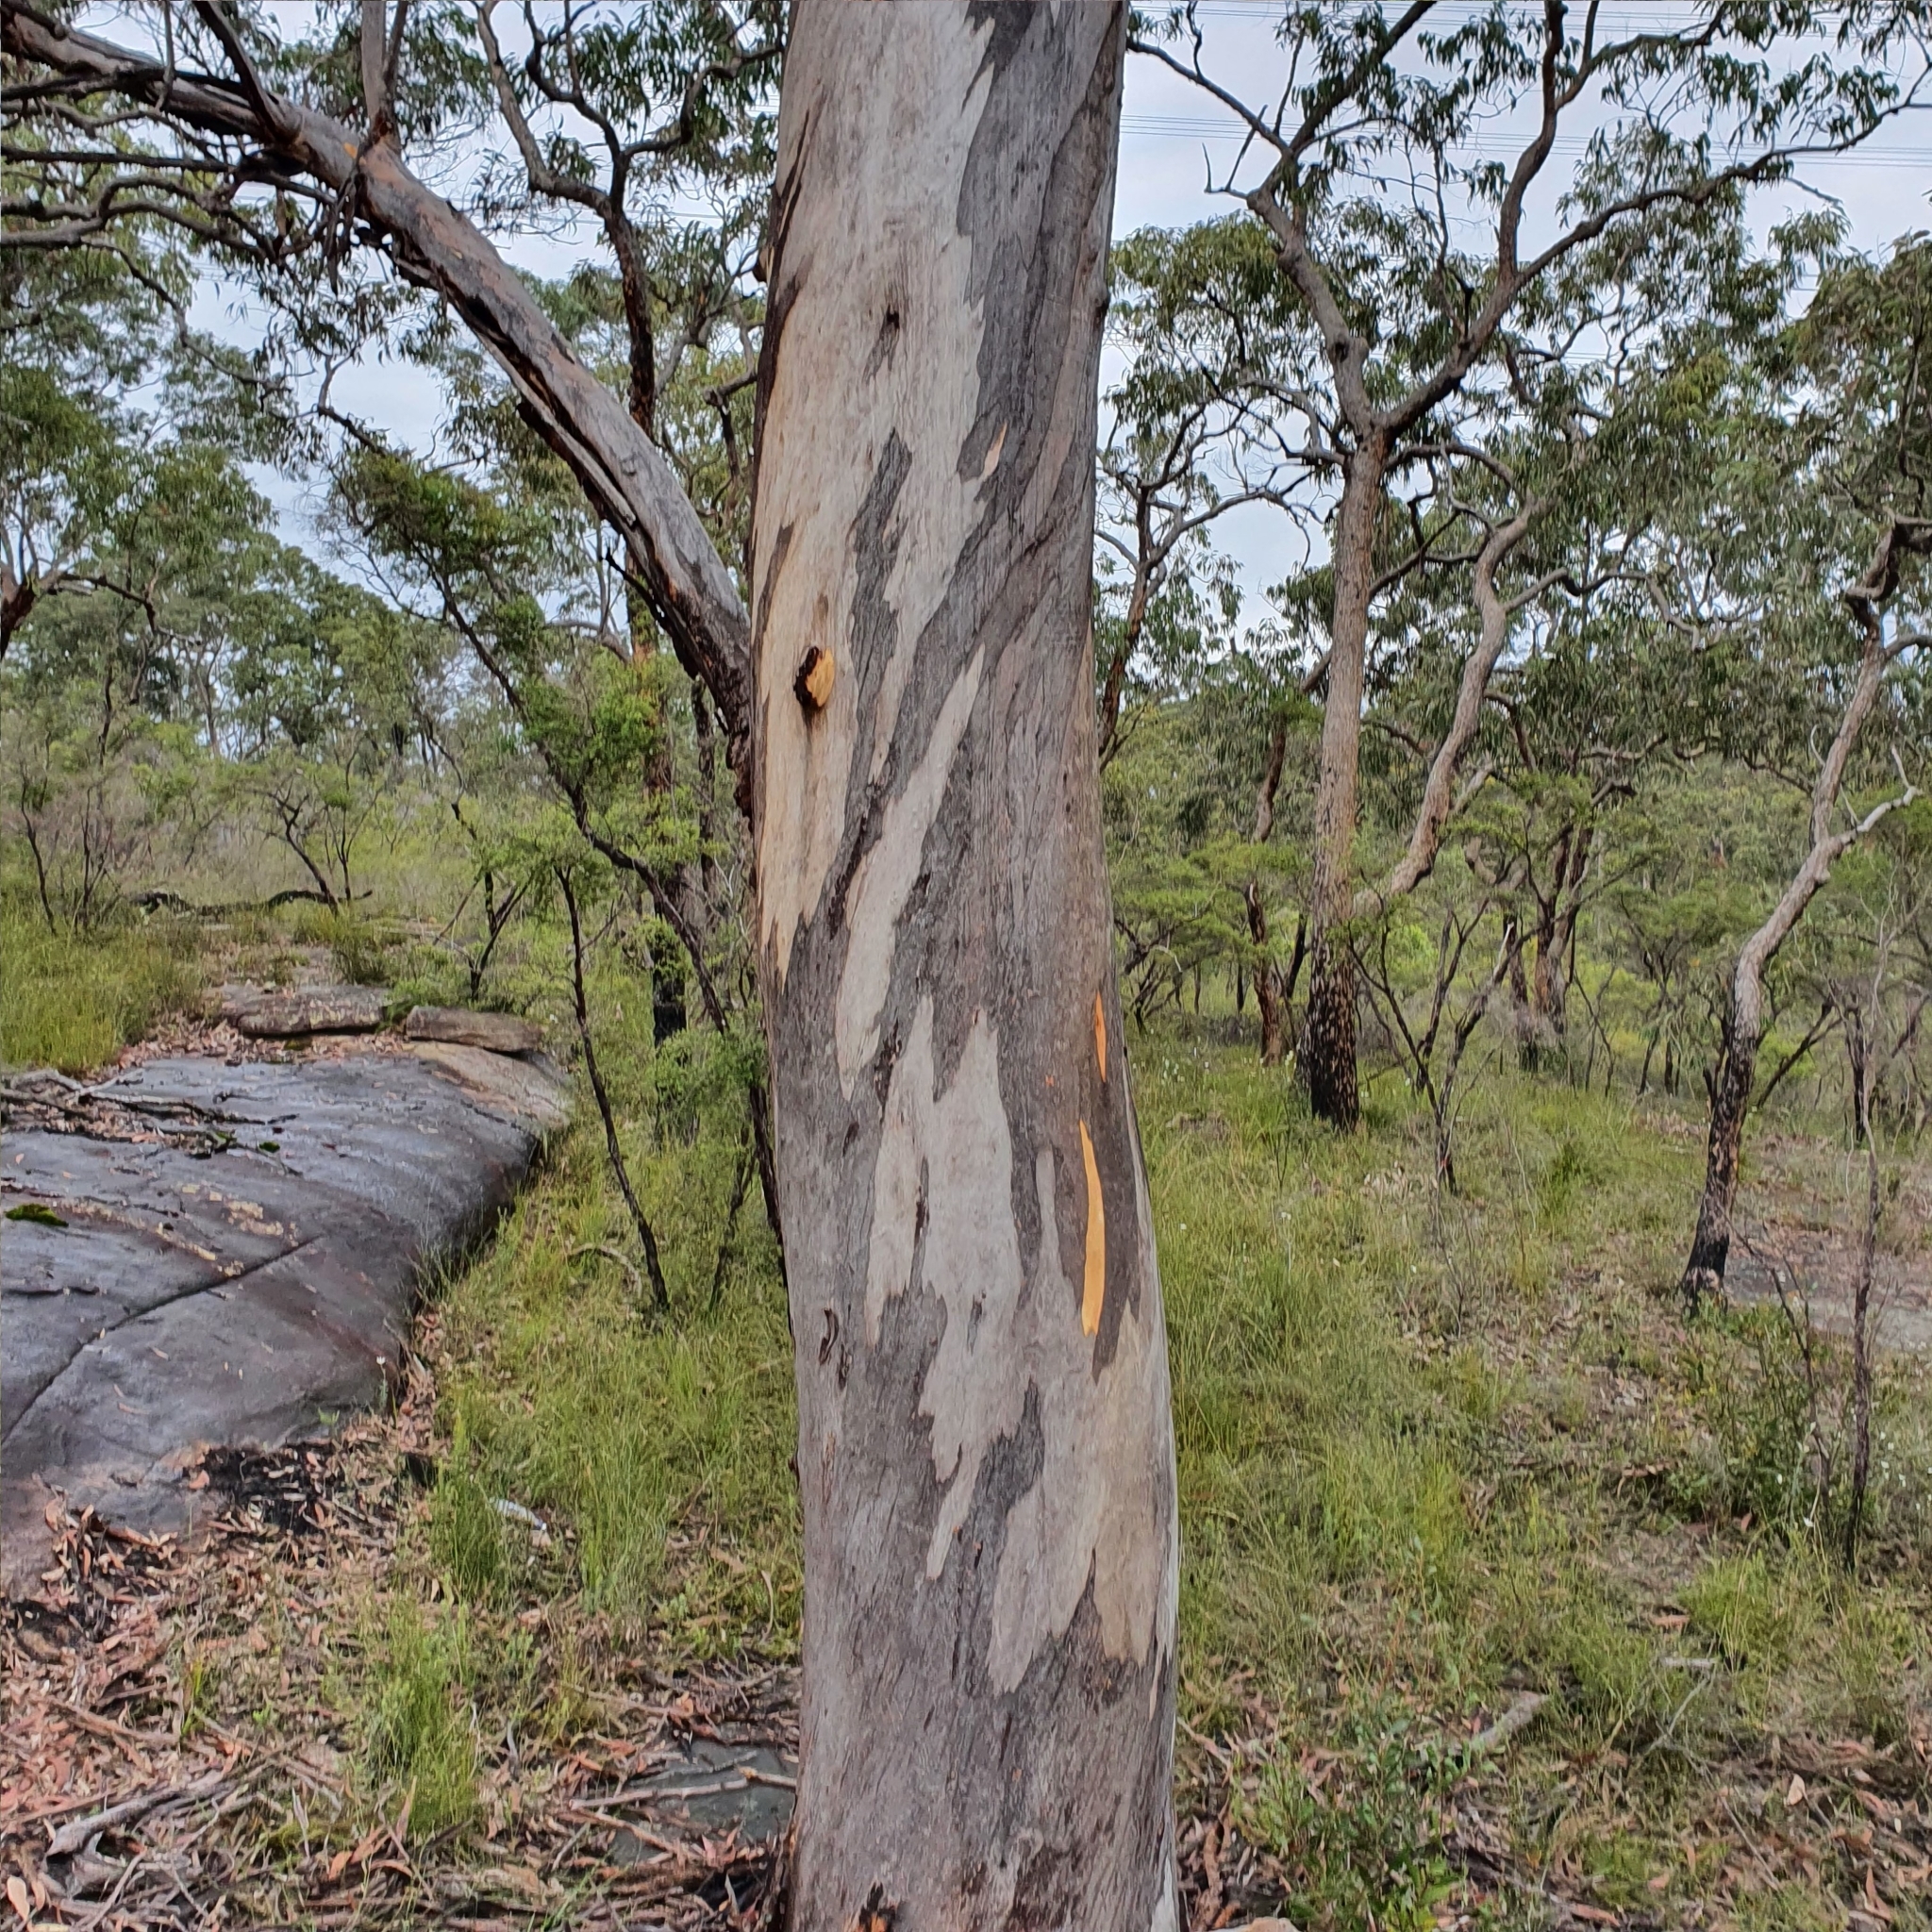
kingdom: Plantae
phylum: Tracheophyta
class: Magnoliopsida
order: Myrtales
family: Myrtaceae
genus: Eucalyptus
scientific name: Eucalyptus punctata
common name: Gray gum
